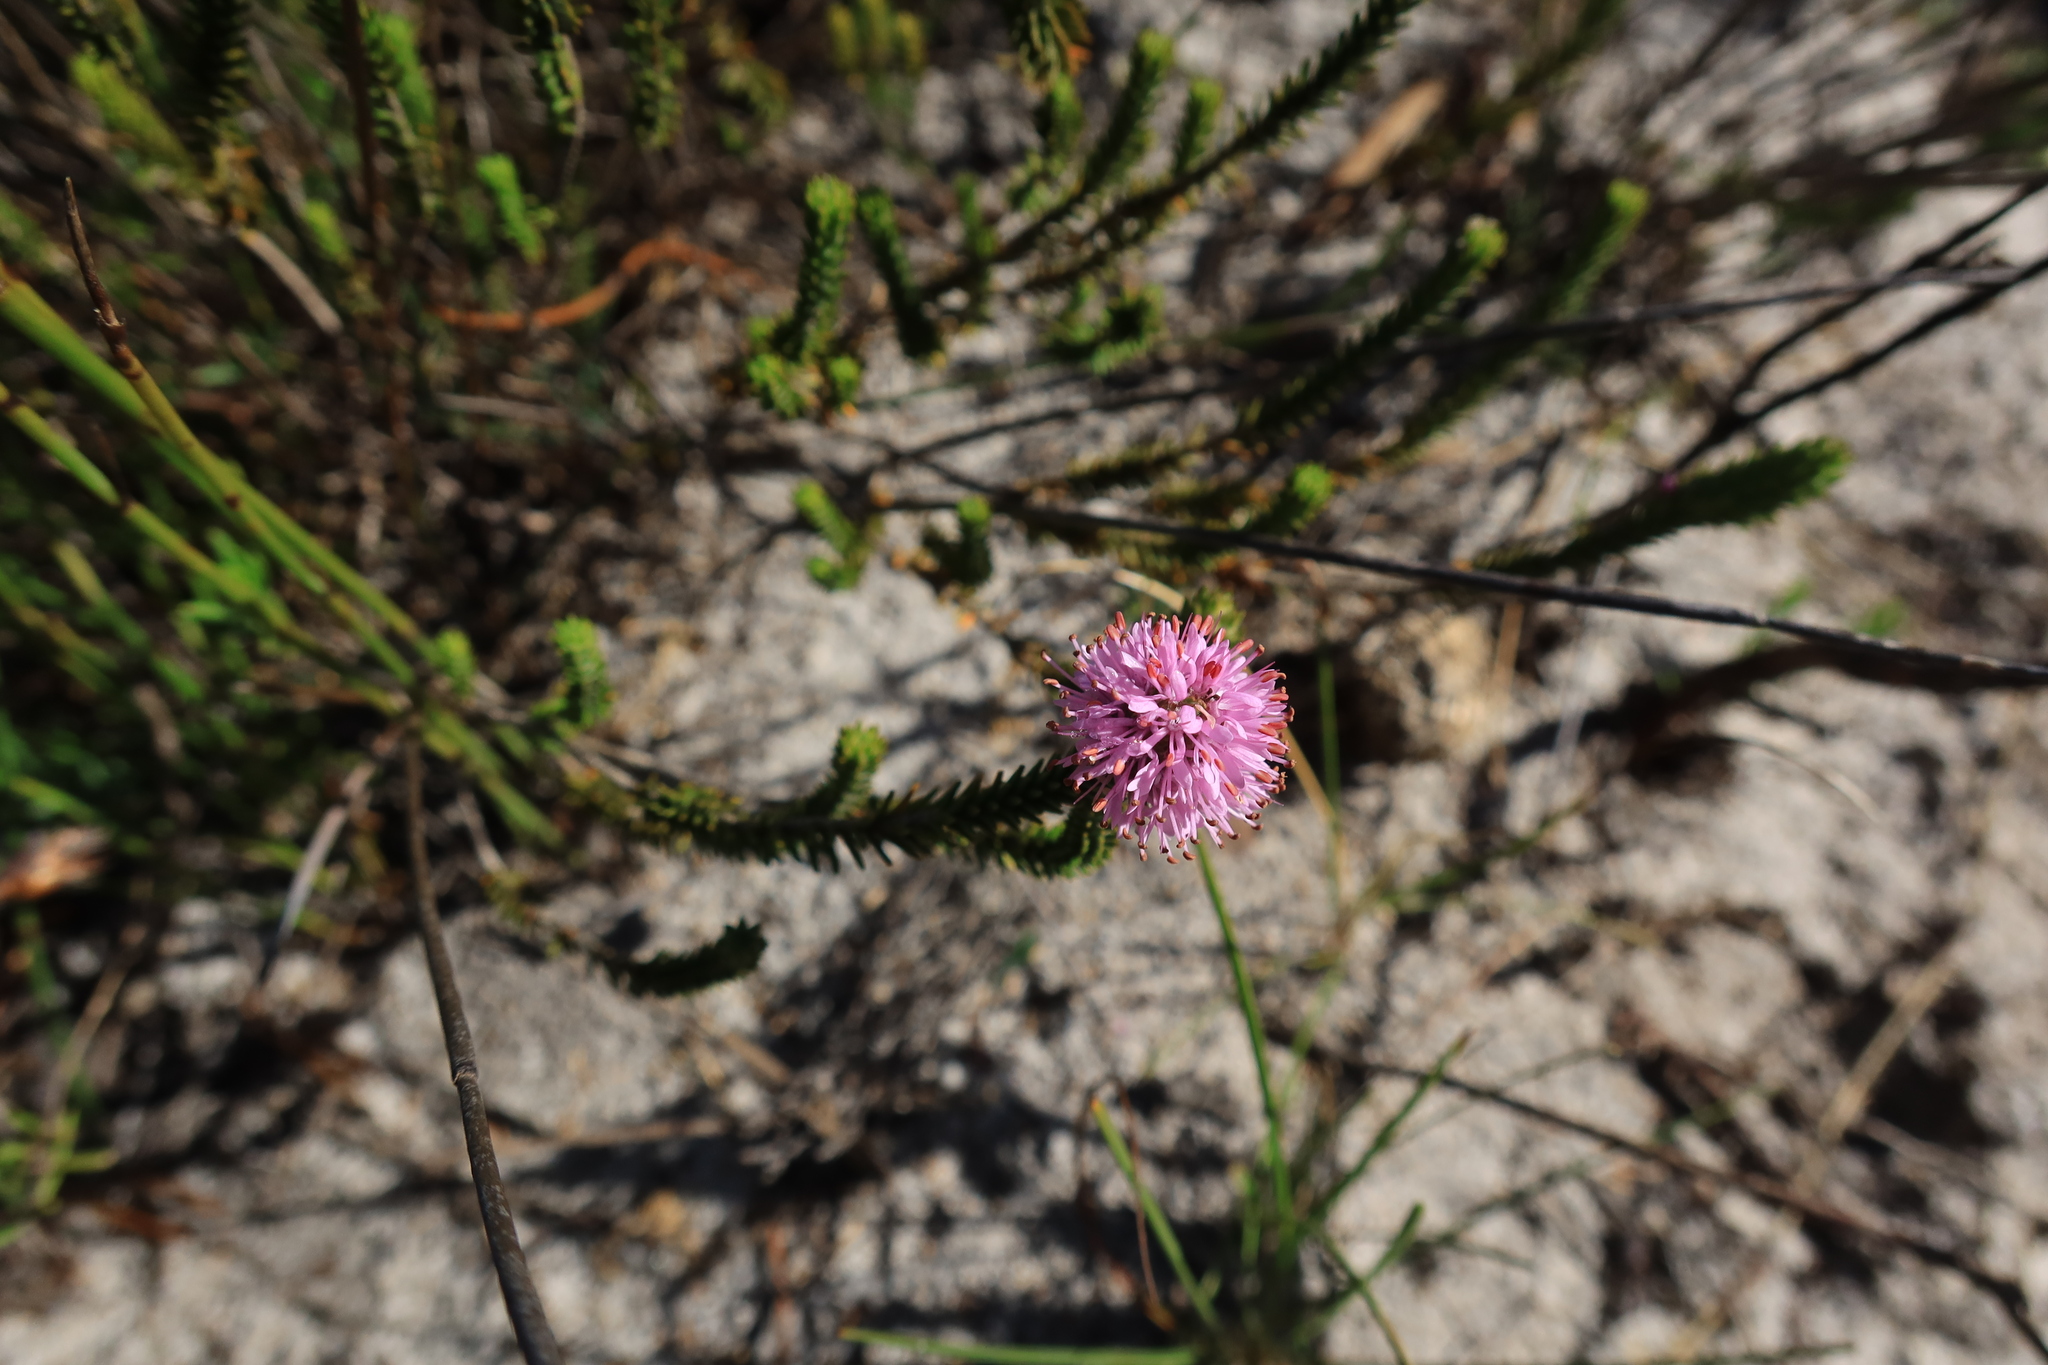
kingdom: Plantae
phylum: Tracheophyta
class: Magnoliopsida
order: Lamiales
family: Stilbaceae
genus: Stilbe
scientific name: Stilbe ericoides
